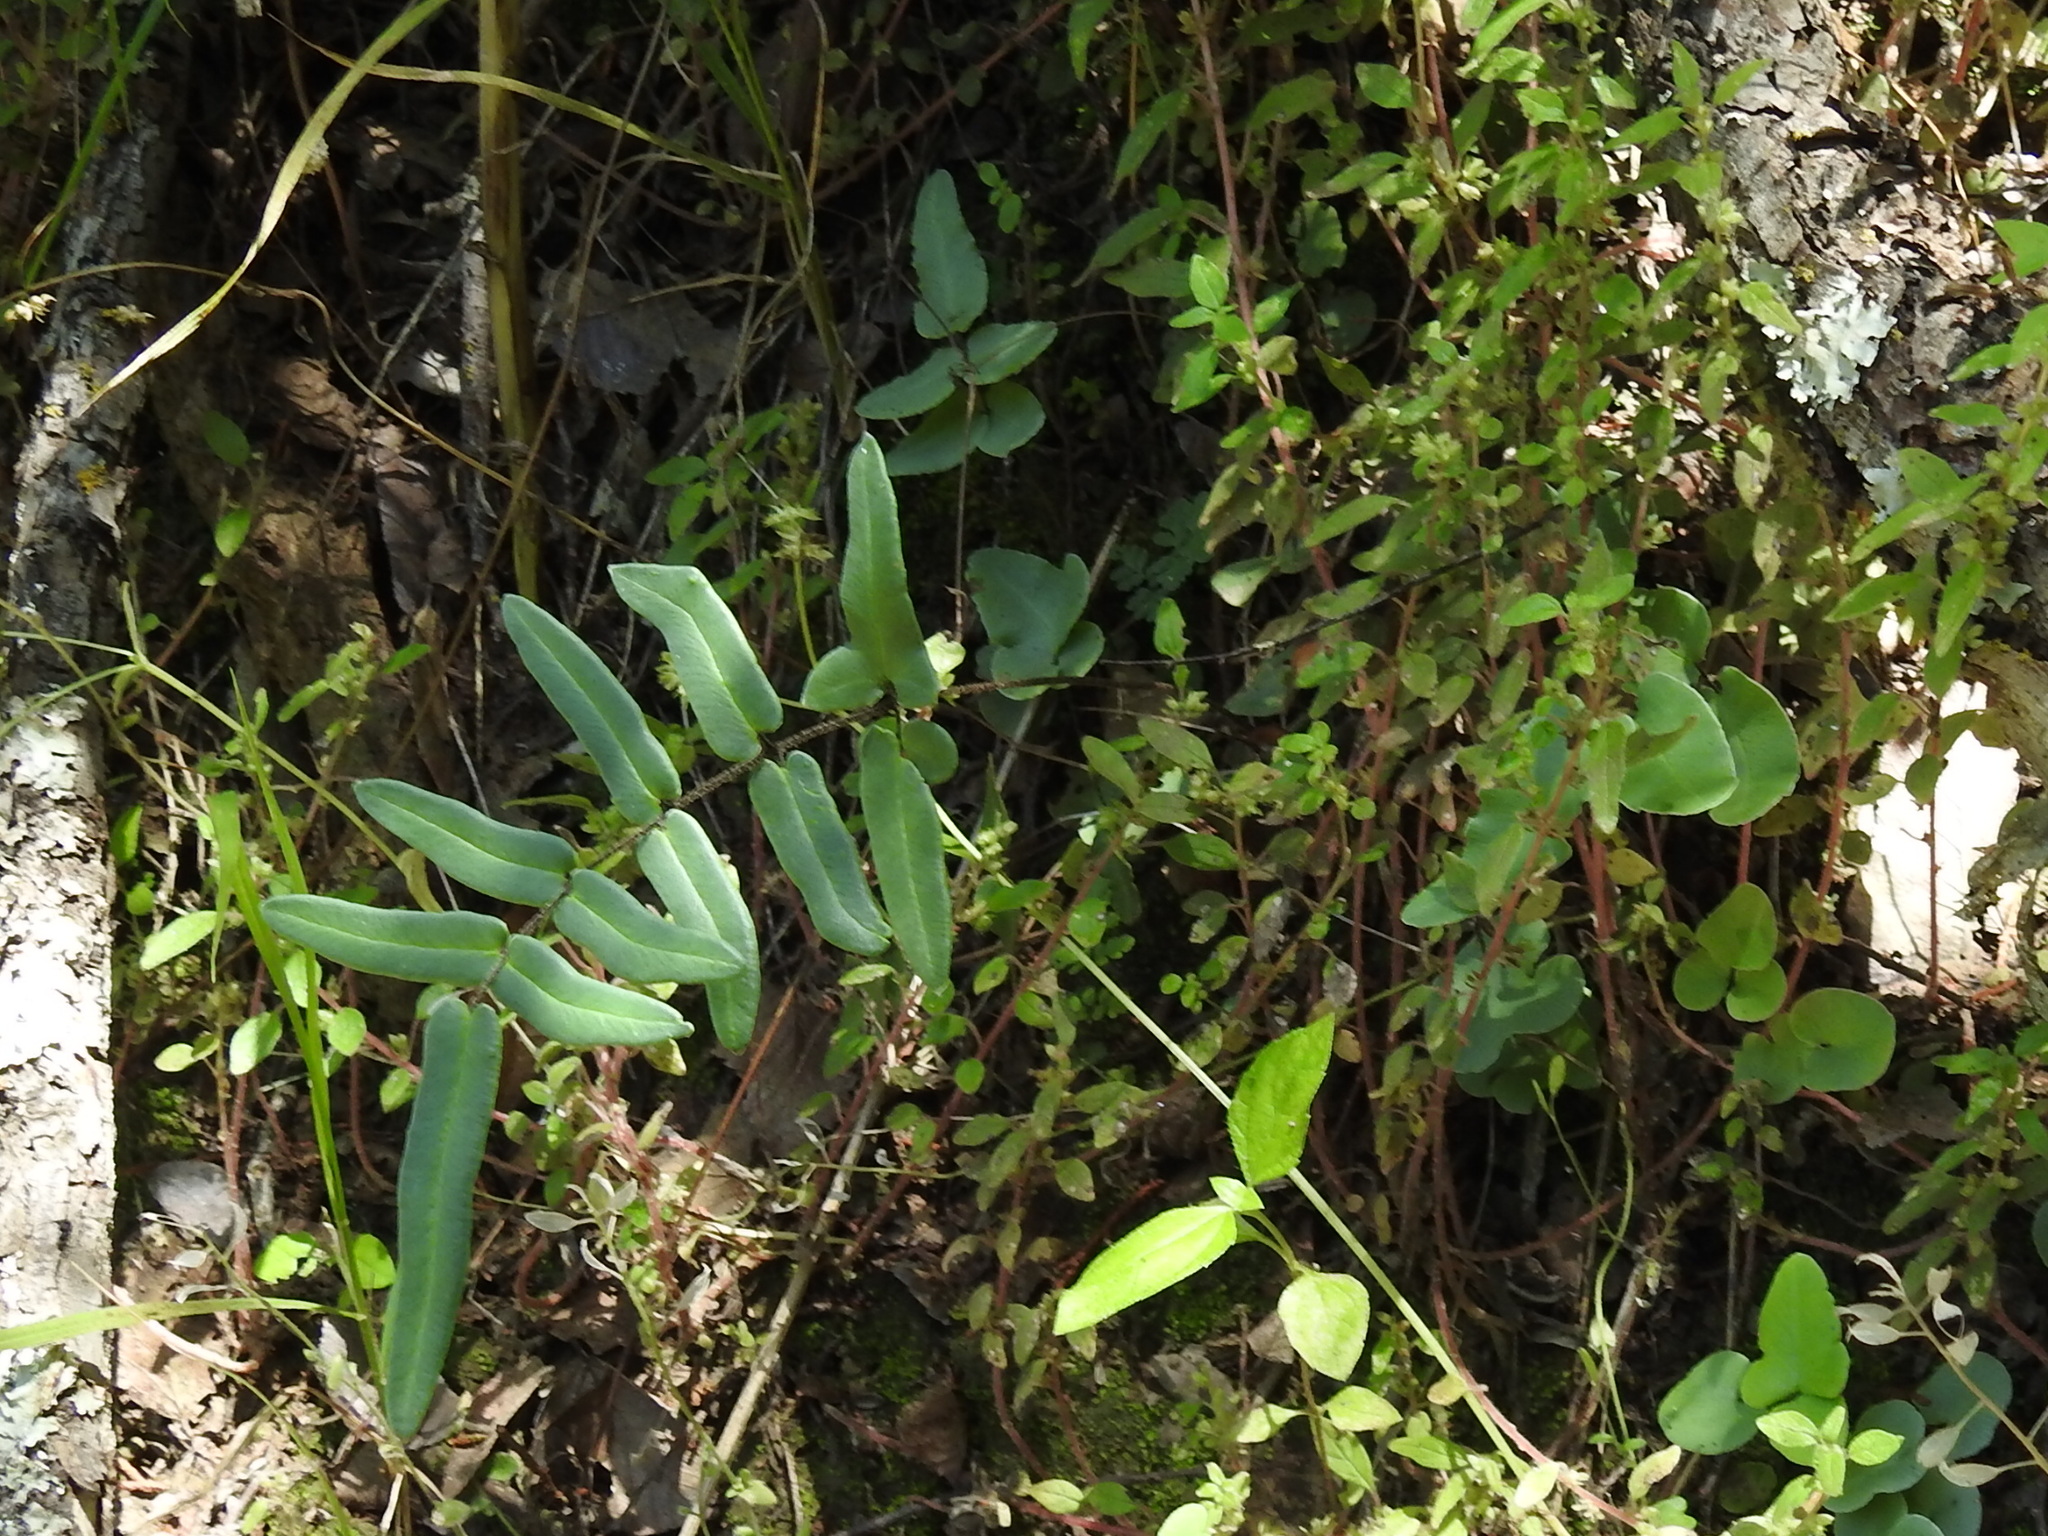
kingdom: Plantae
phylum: Tracheophyta
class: Polypodiopsida
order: Polypodiales
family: Pteridaceae
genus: Pellaea
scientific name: Pellaea atropurpurea
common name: Hairy cliffbrake
